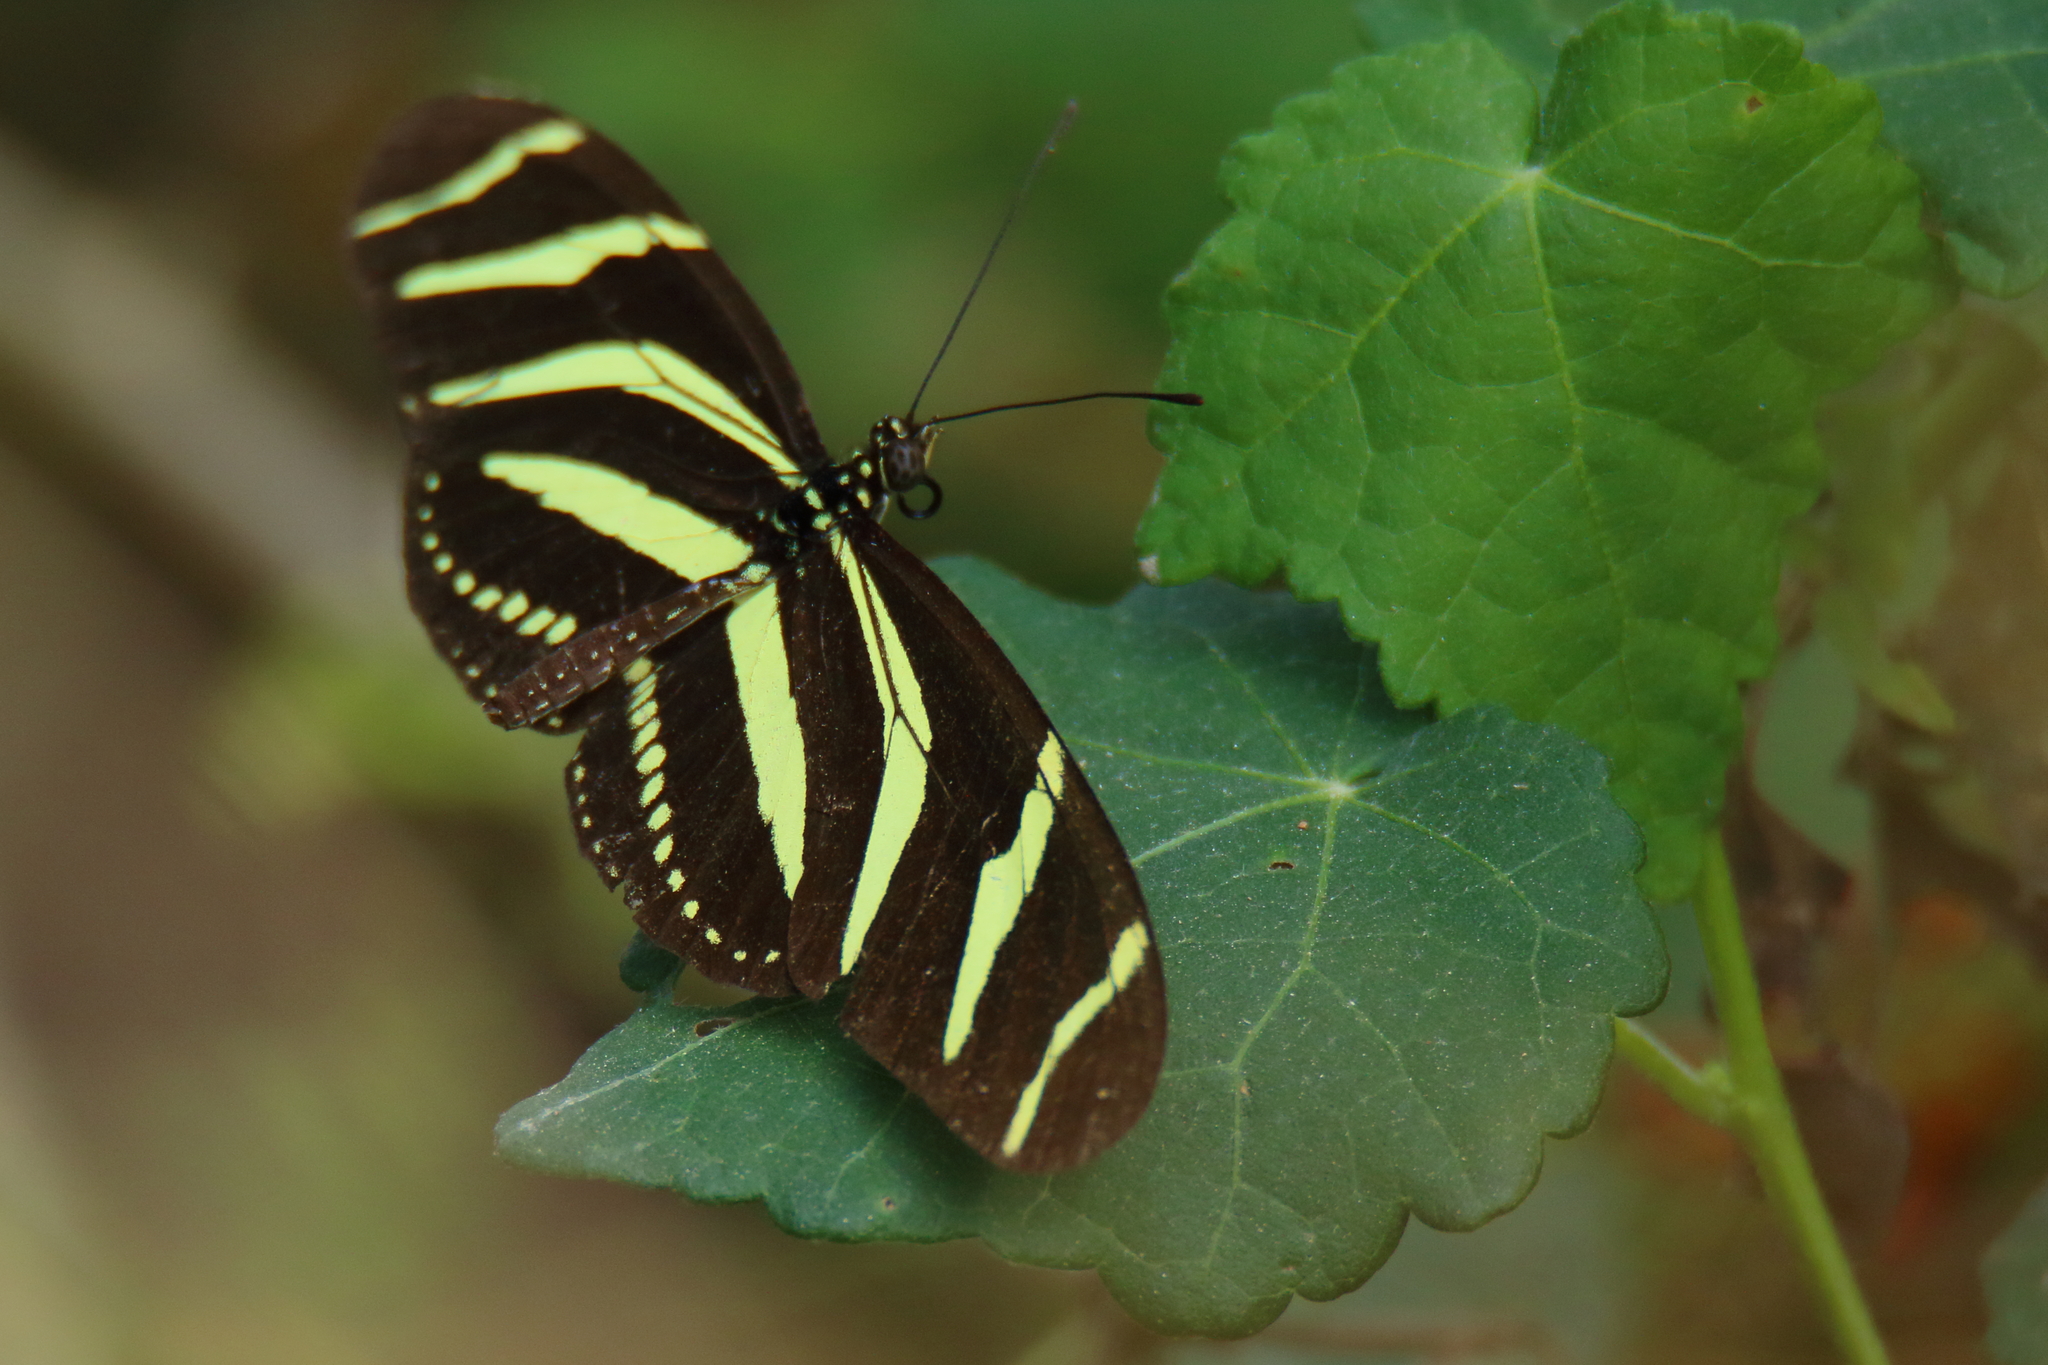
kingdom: Animalia
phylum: Arthropoda
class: Insecta
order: Lepidoptera
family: Nymphalidae
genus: Heliconius
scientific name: Heliconius charithonia
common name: Zebra long wing
